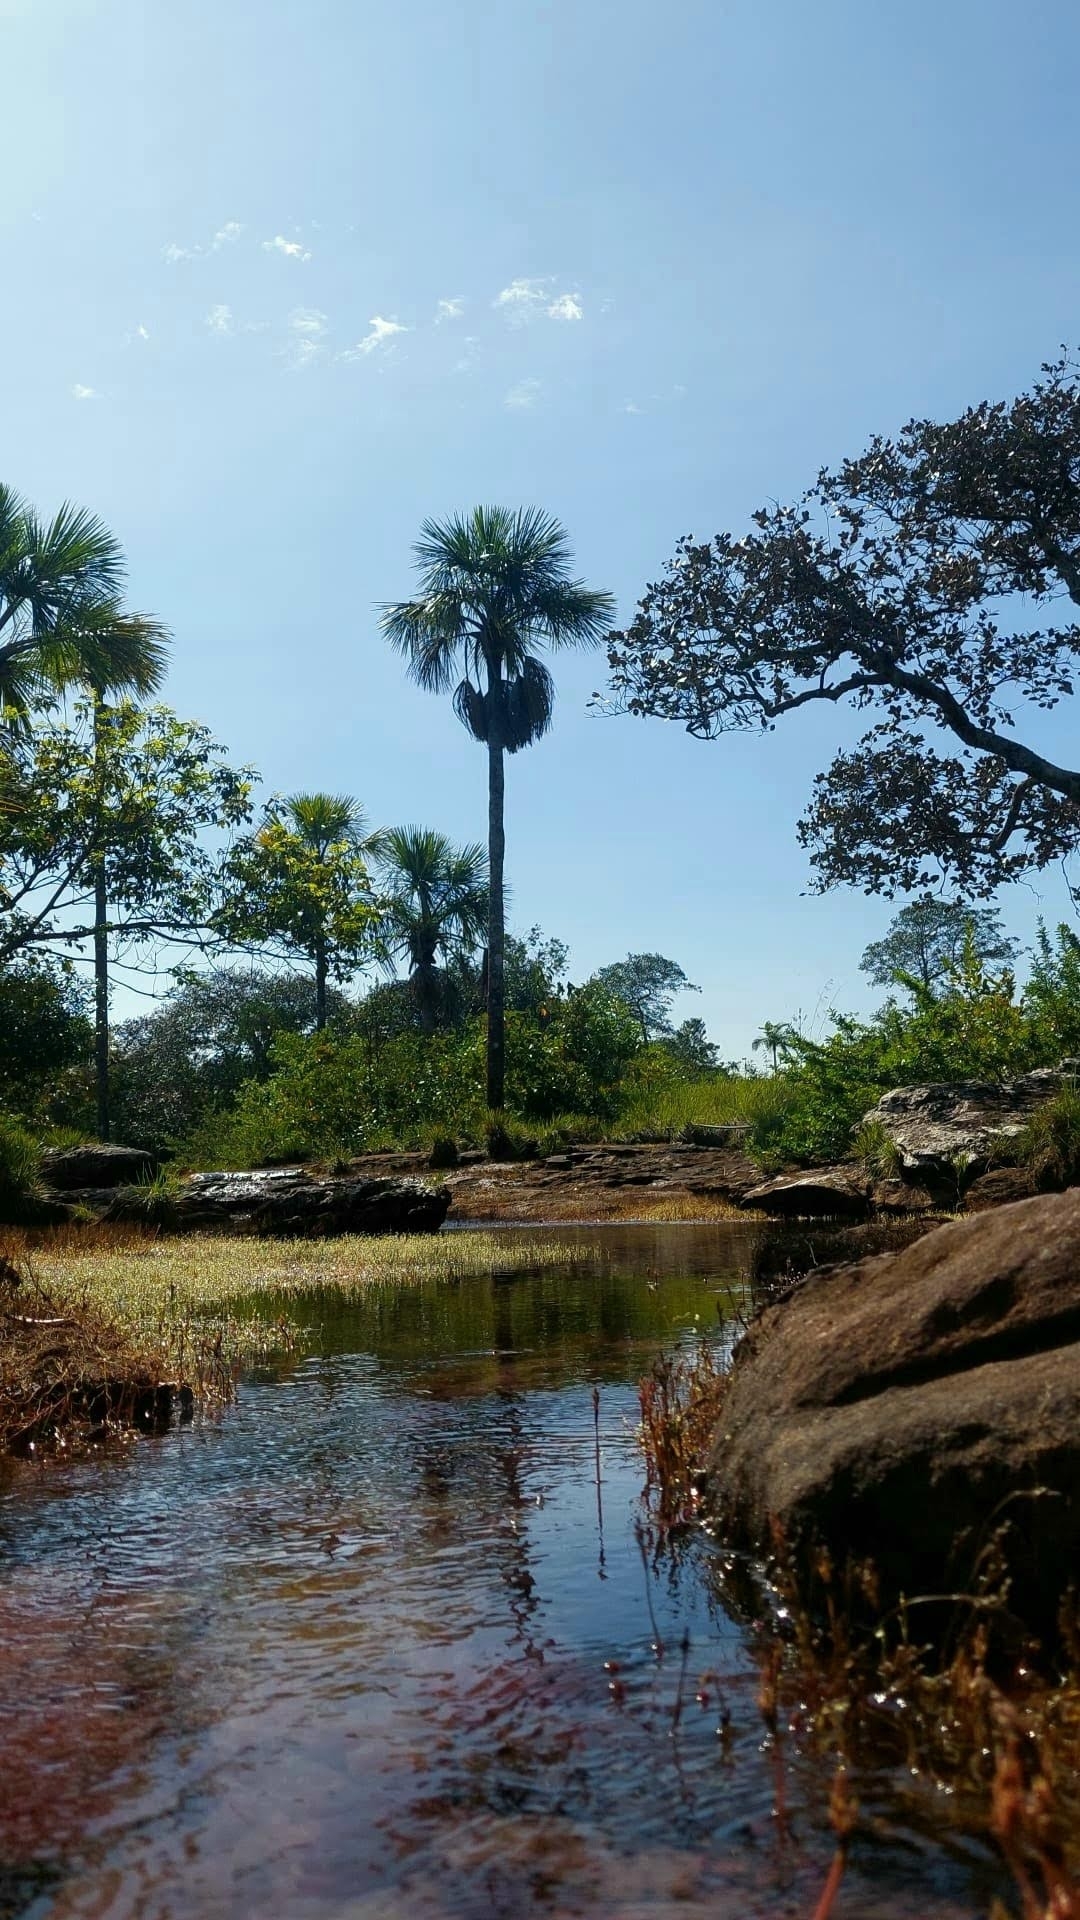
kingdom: Plantae
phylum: Tracheophyta
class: Liliopsida
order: Arecales
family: Arecaceae
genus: Mauritia
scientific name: Mauritia flexuosa
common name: Tree-of-life
